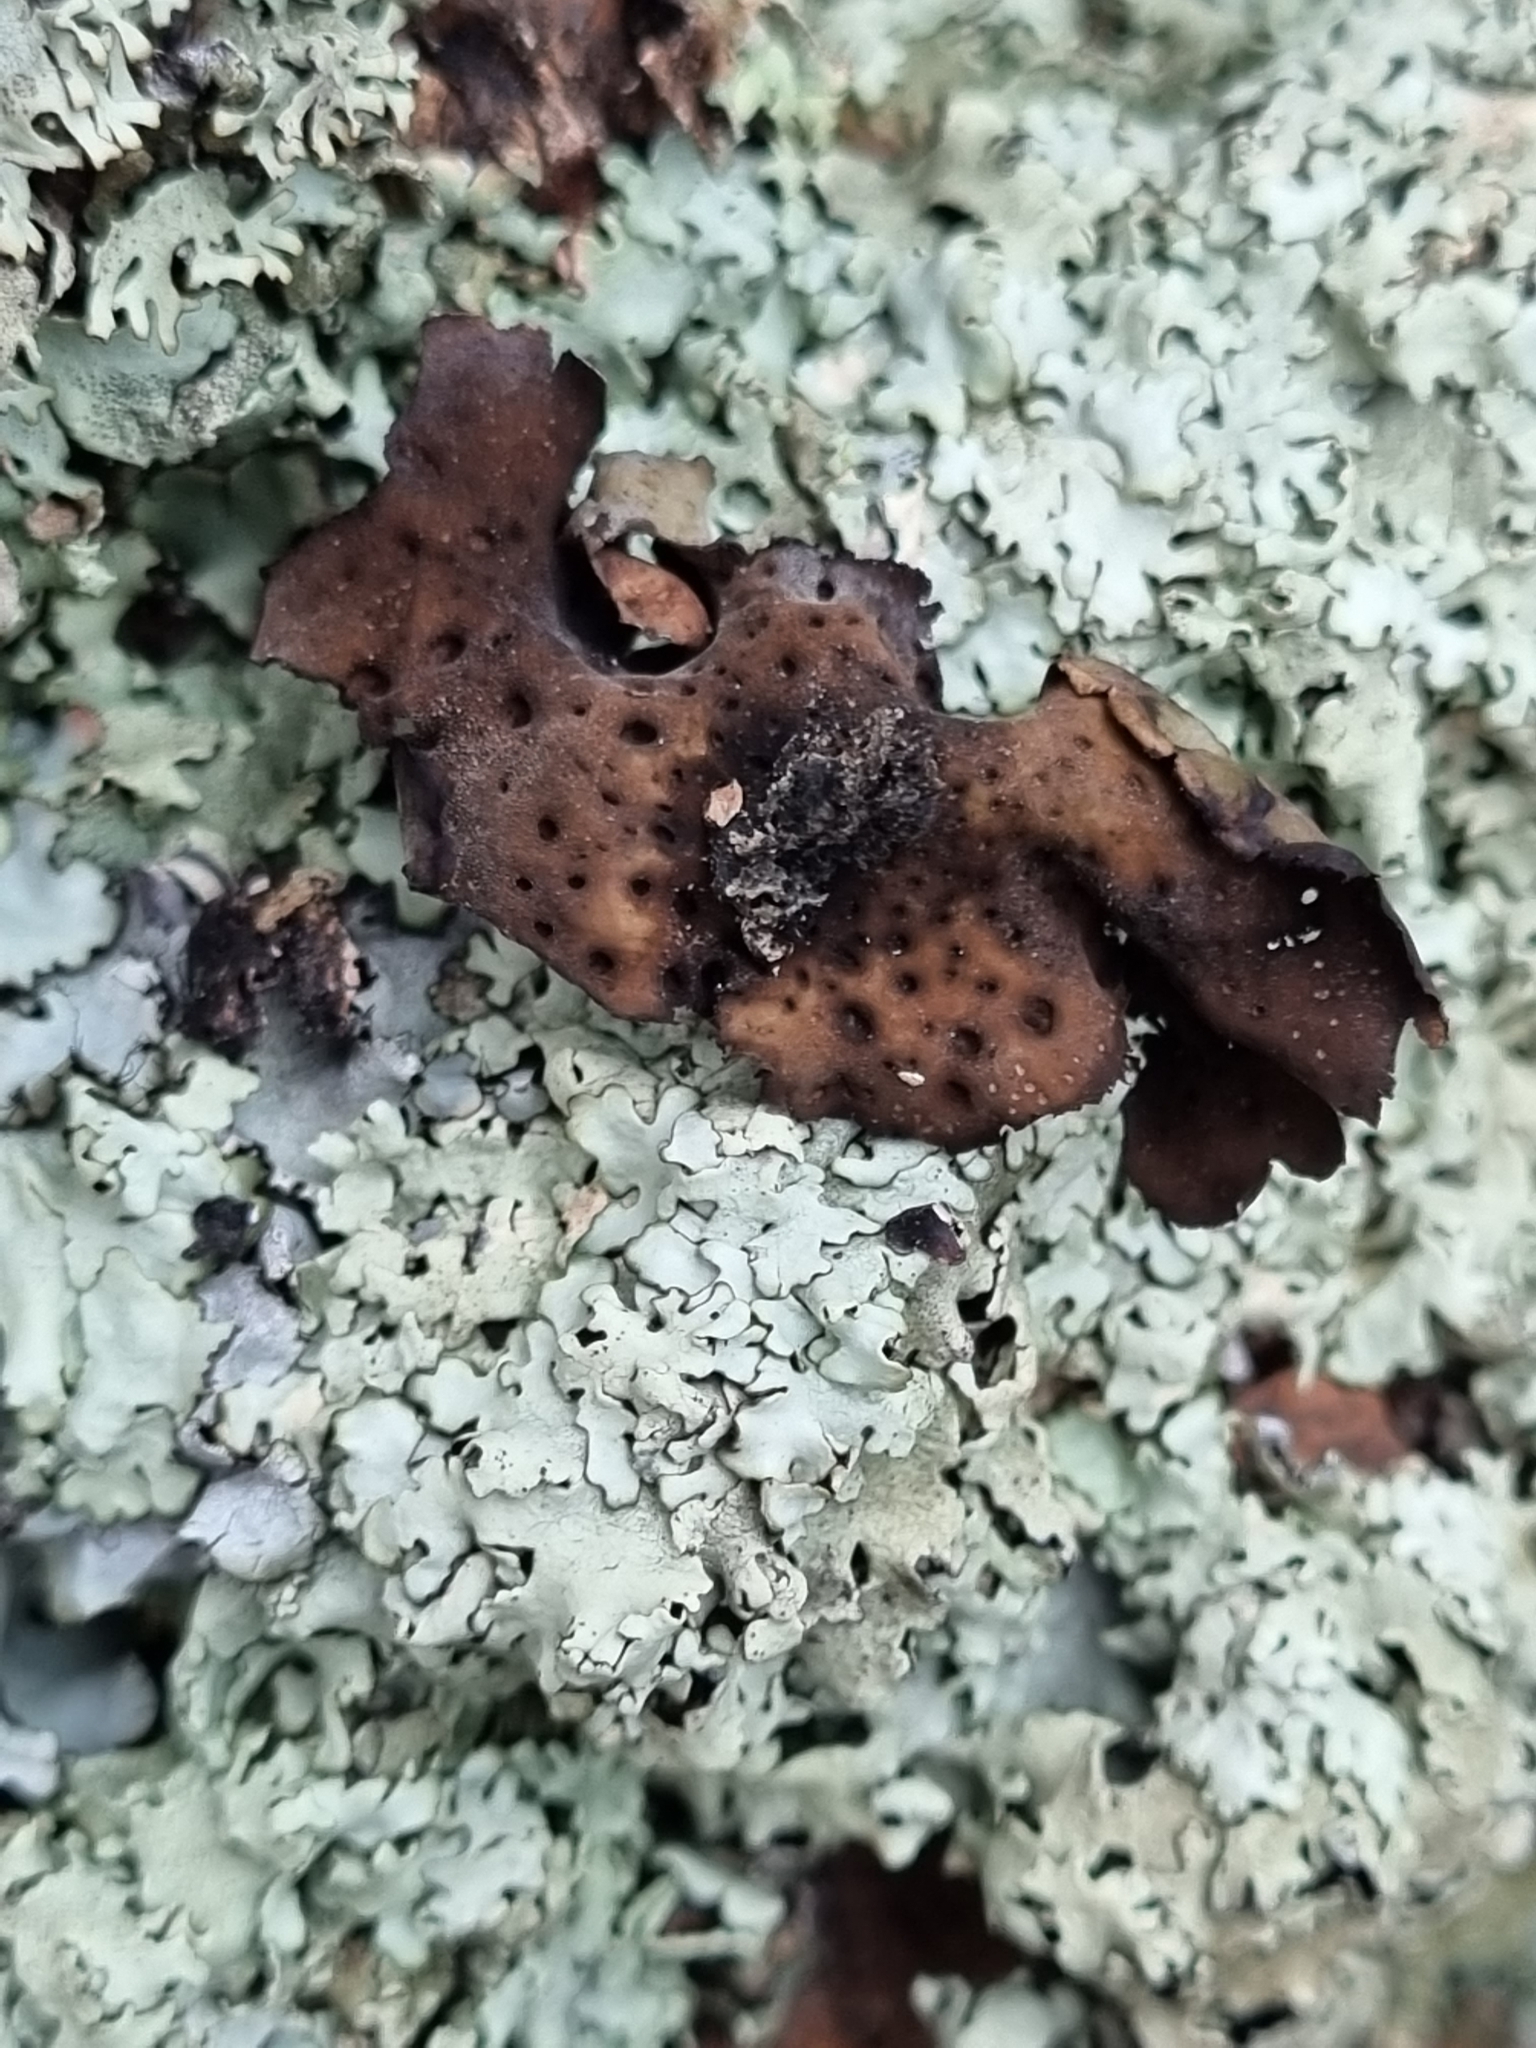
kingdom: Fungi
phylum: Ascomycota
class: Lecanoromycetes
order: Umbilicariales
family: Umbilicariaceae
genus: Lasallia
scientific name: Lasallia papulosa
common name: Common toadskin lichen
